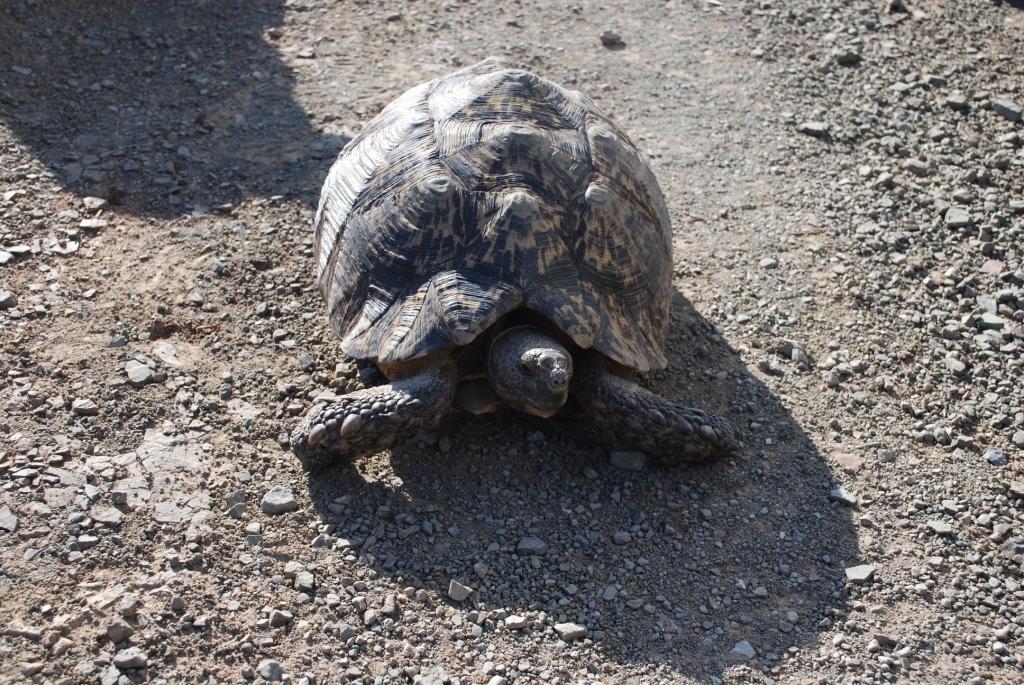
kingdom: Animalia
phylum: Chordata
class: Testudines
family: Testudinidae
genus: Stigmochelys
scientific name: Stigmochelys pardalis
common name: Leopard tortoise
